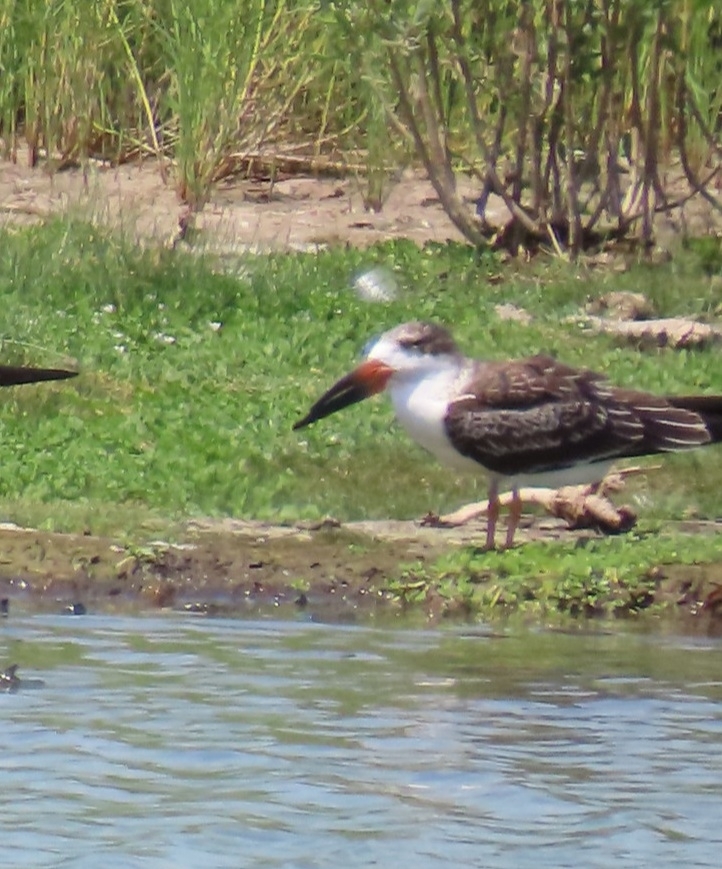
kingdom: Animalia
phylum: Chordata
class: Aves
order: Charadriiformes
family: Laridae
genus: Rynchops
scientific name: Rynchops niger
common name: Black skimmer
